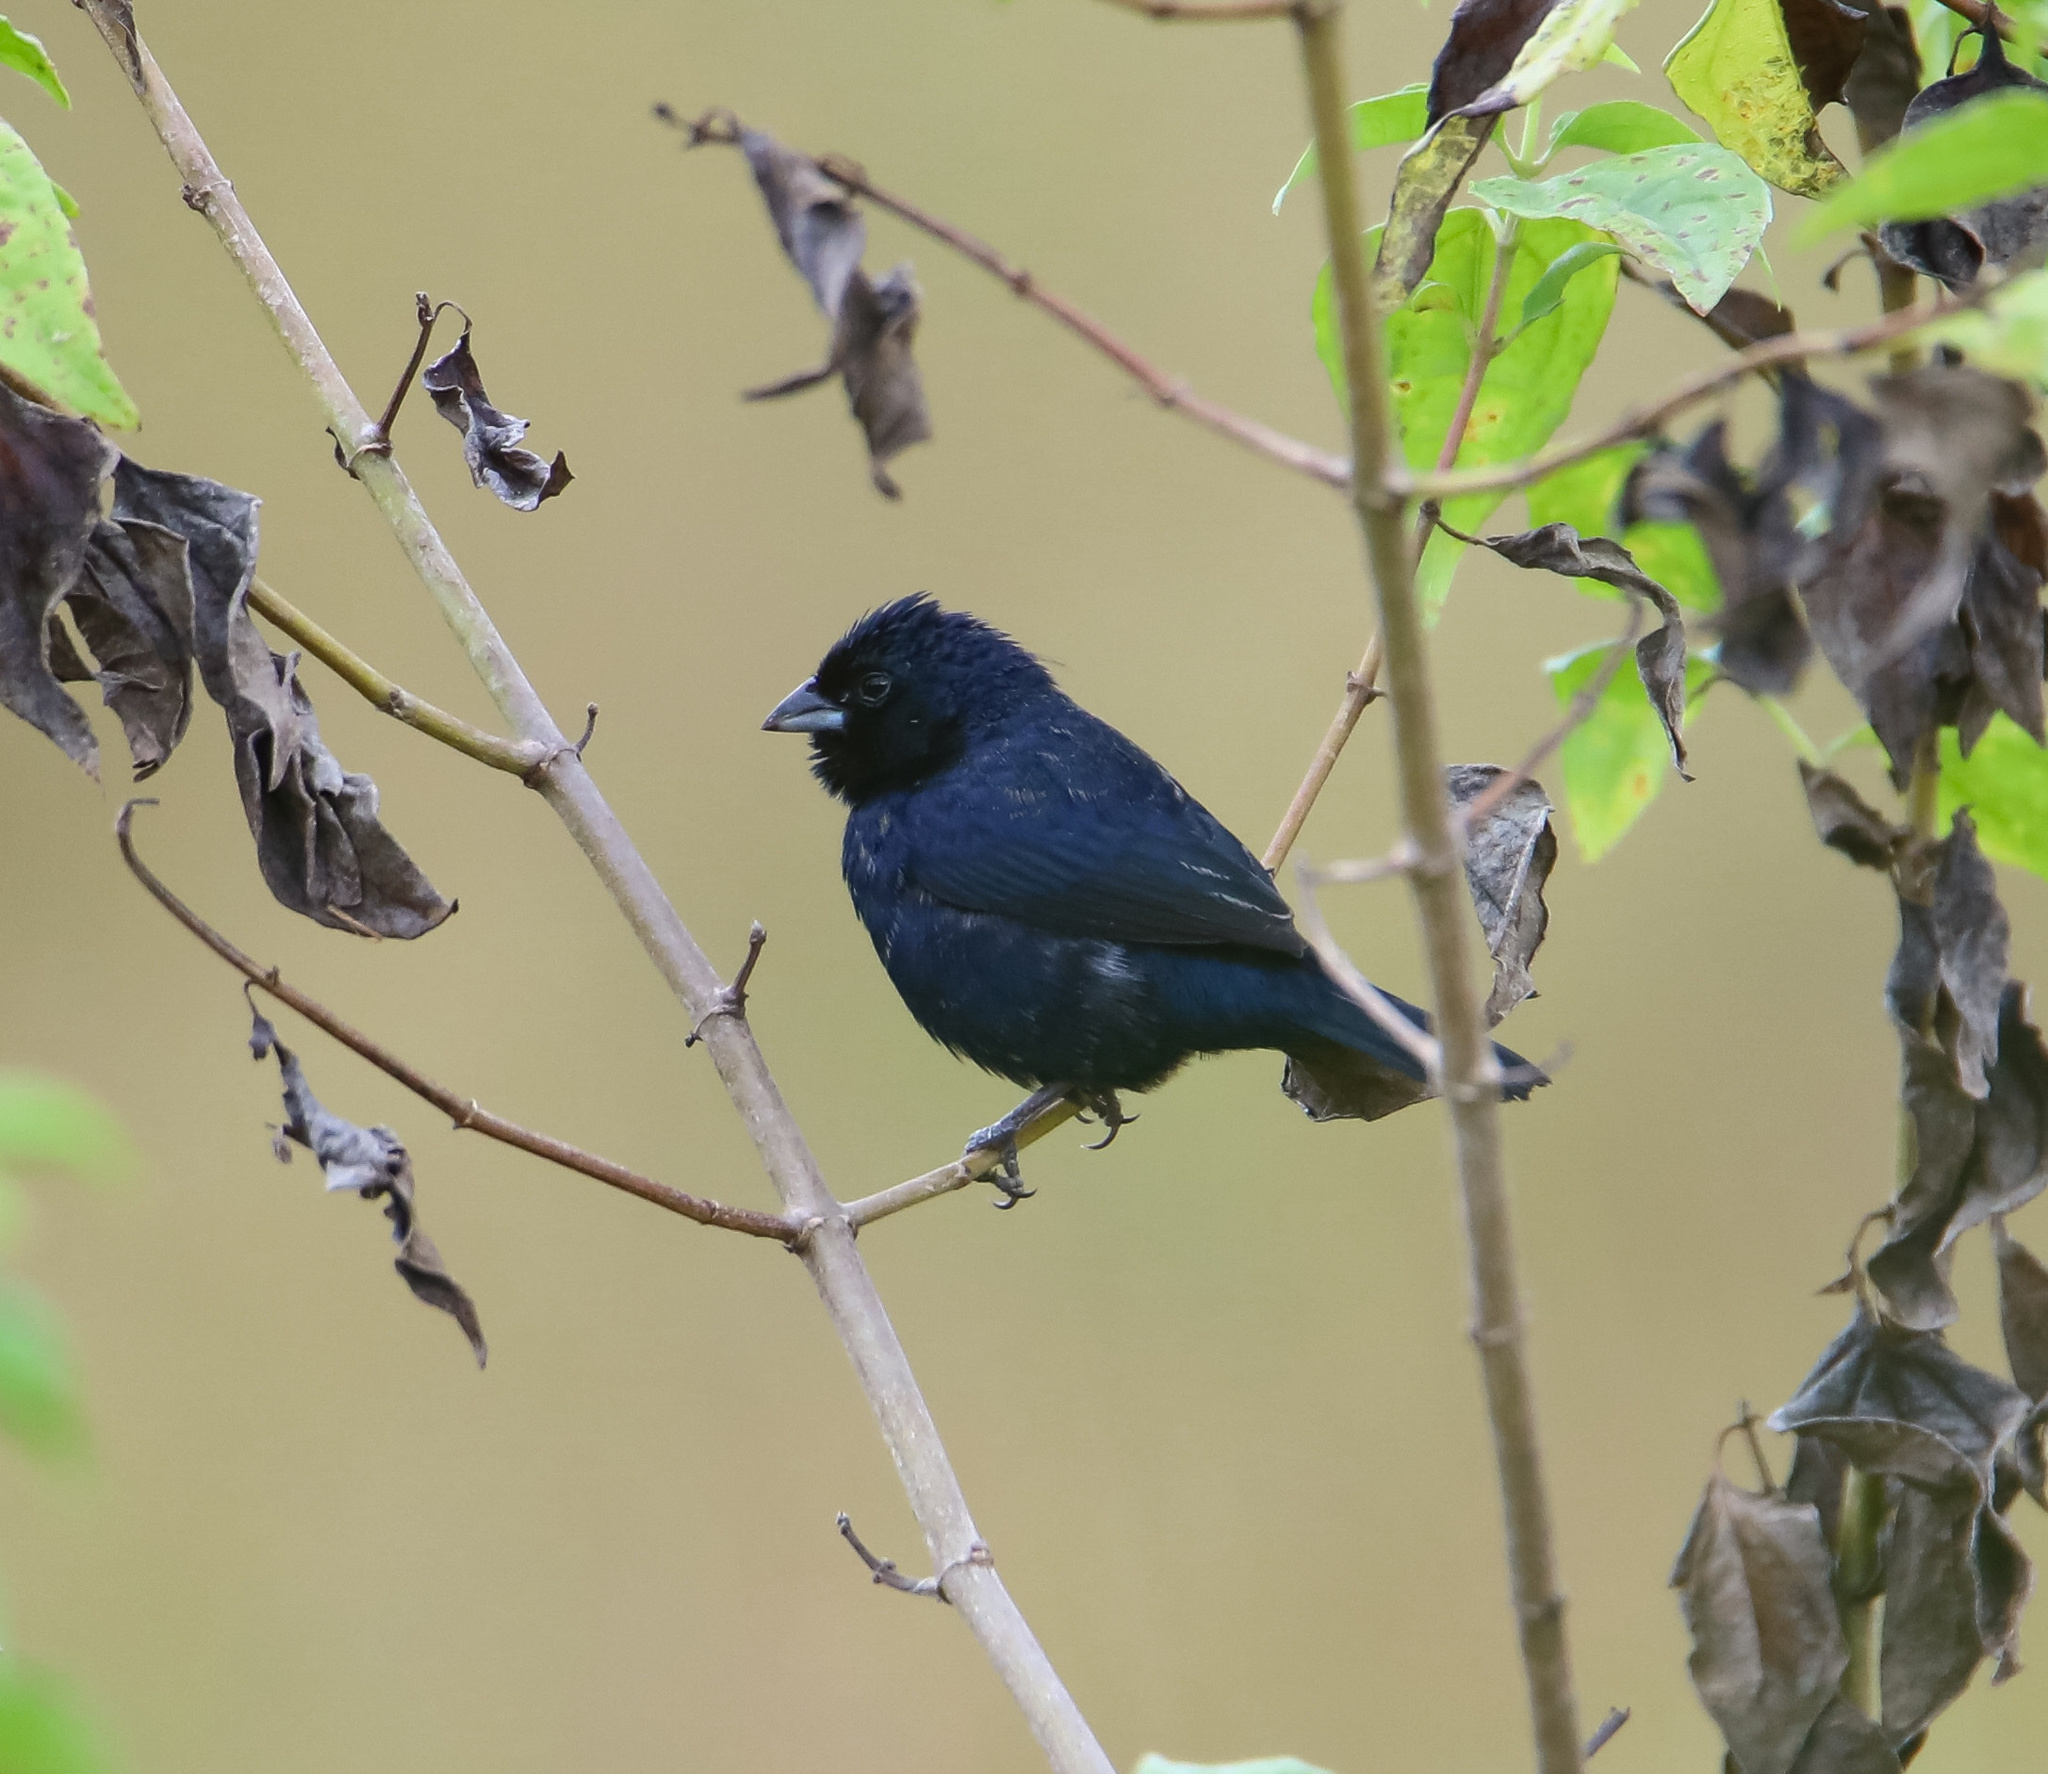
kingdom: Animalia
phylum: Chordata
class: Aves
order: Passeriformes
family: Thraupidae
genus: Volatinia
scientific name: Volatinia jacarina
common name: Blue-black grassquit
